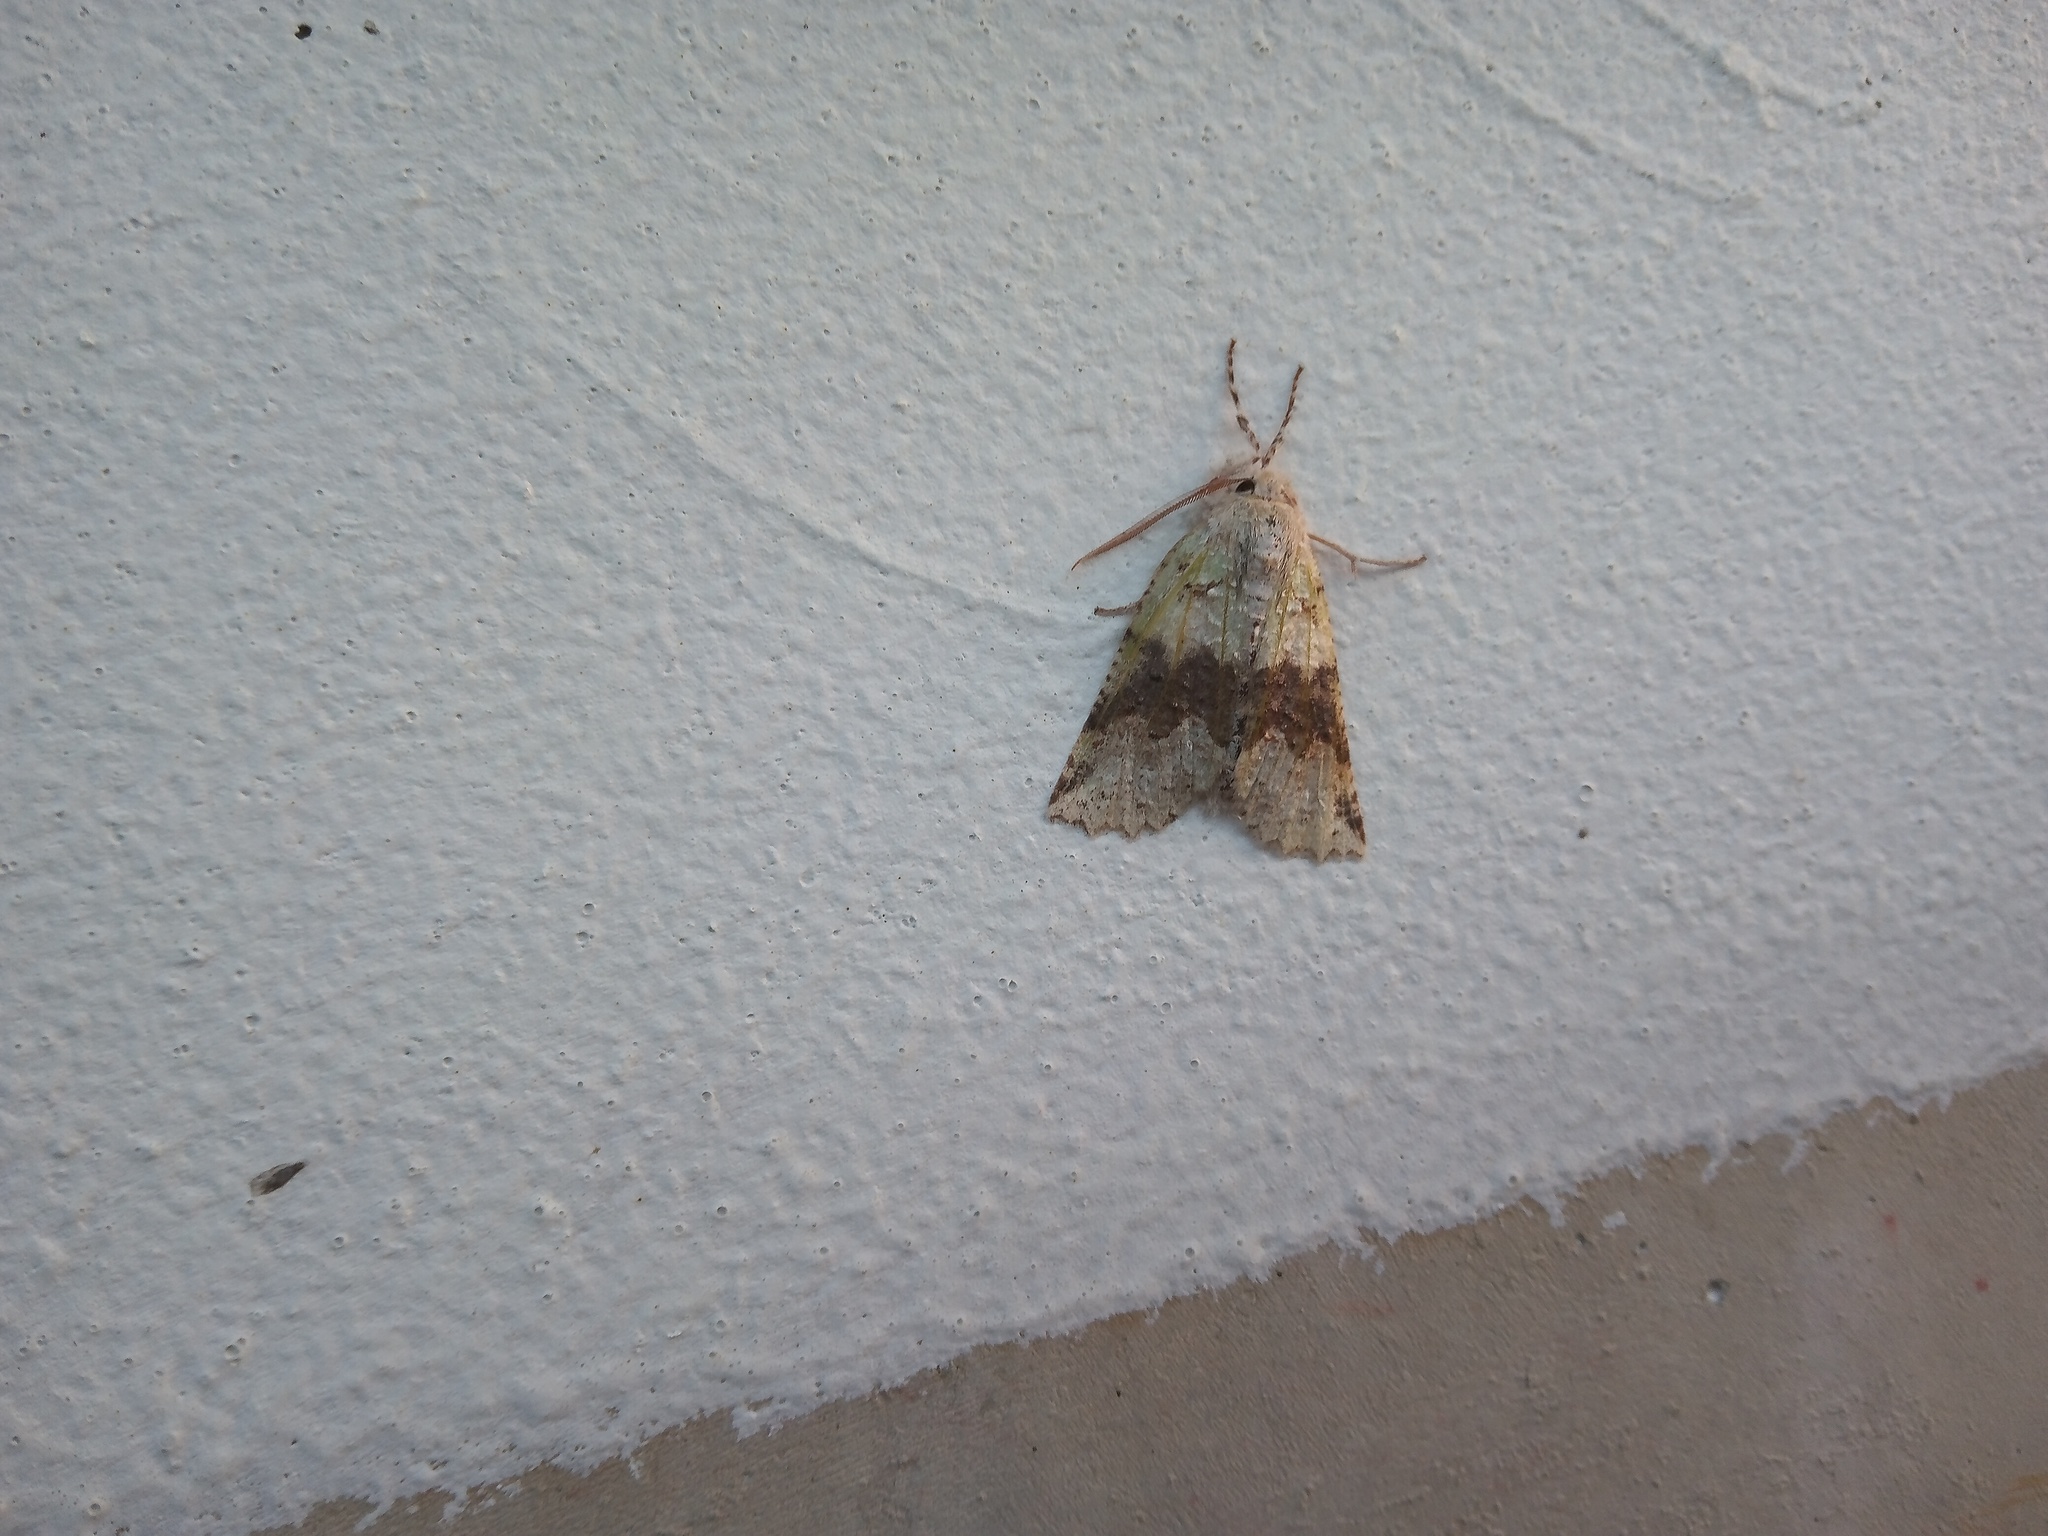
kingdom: Animalia
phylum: Arthropoda
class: Insecta
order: Lepidoptera
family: Geometridae
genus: Declana
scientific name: Declana floccosa
